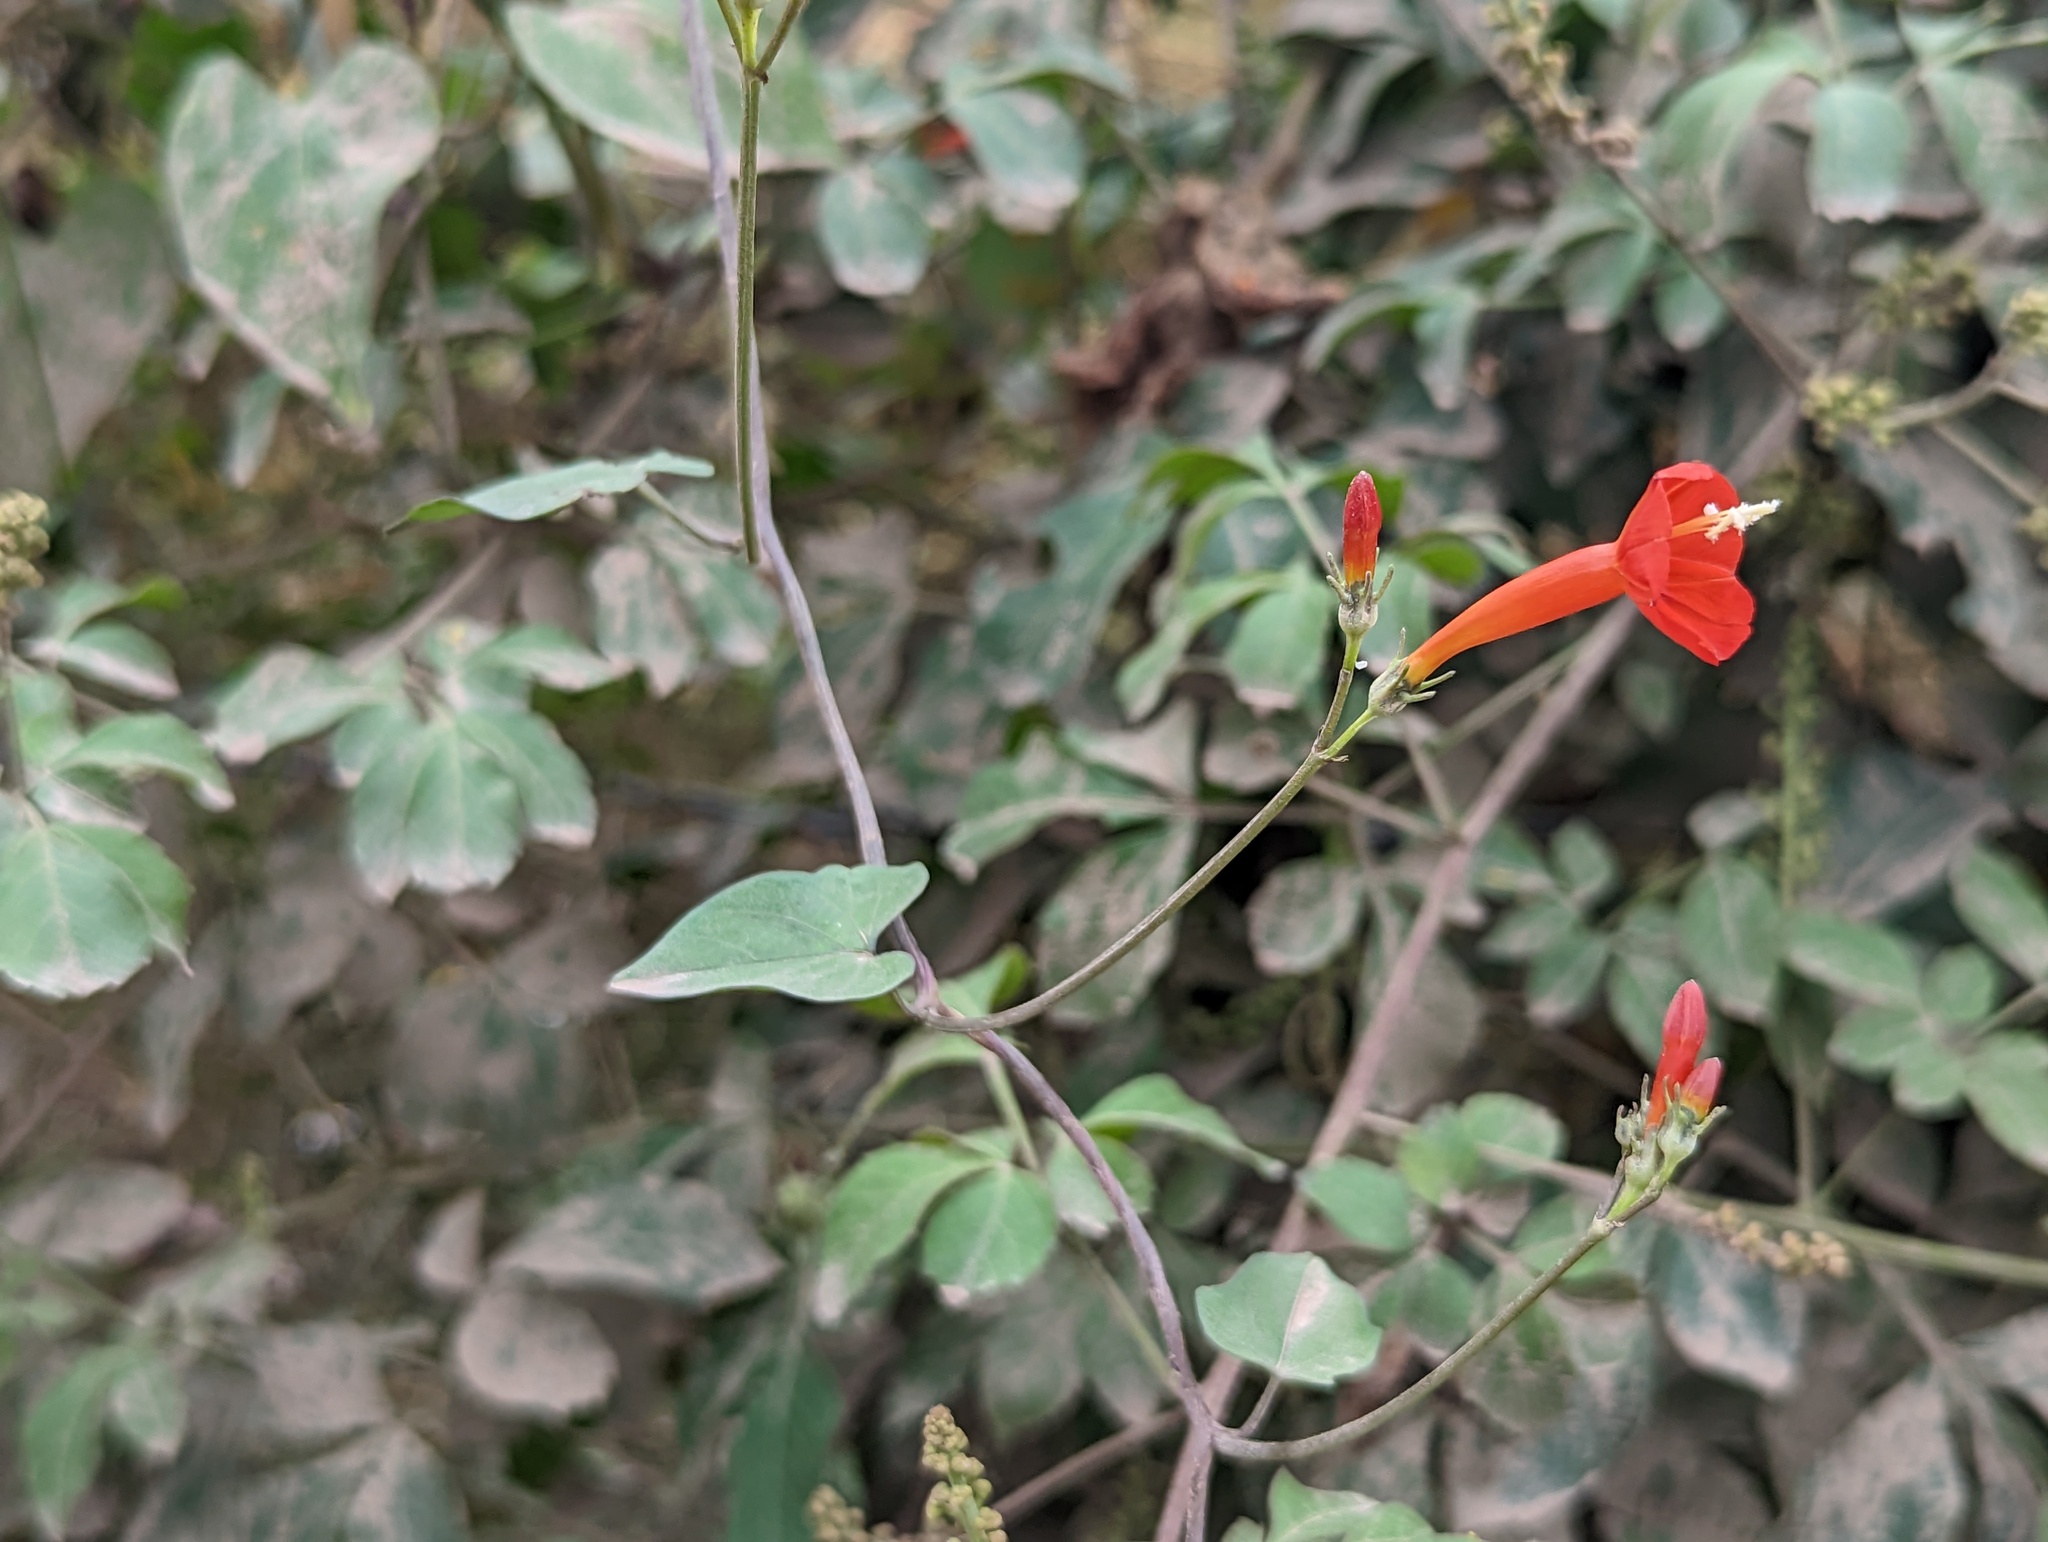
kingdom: Plantae
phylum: Tracheophyta
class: Magnoliopsida
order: Solanales
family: Convolvulaceae
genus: Ipomoea
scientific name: Ipomoea hederifolia
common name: Ivy-leaf morning-glory
